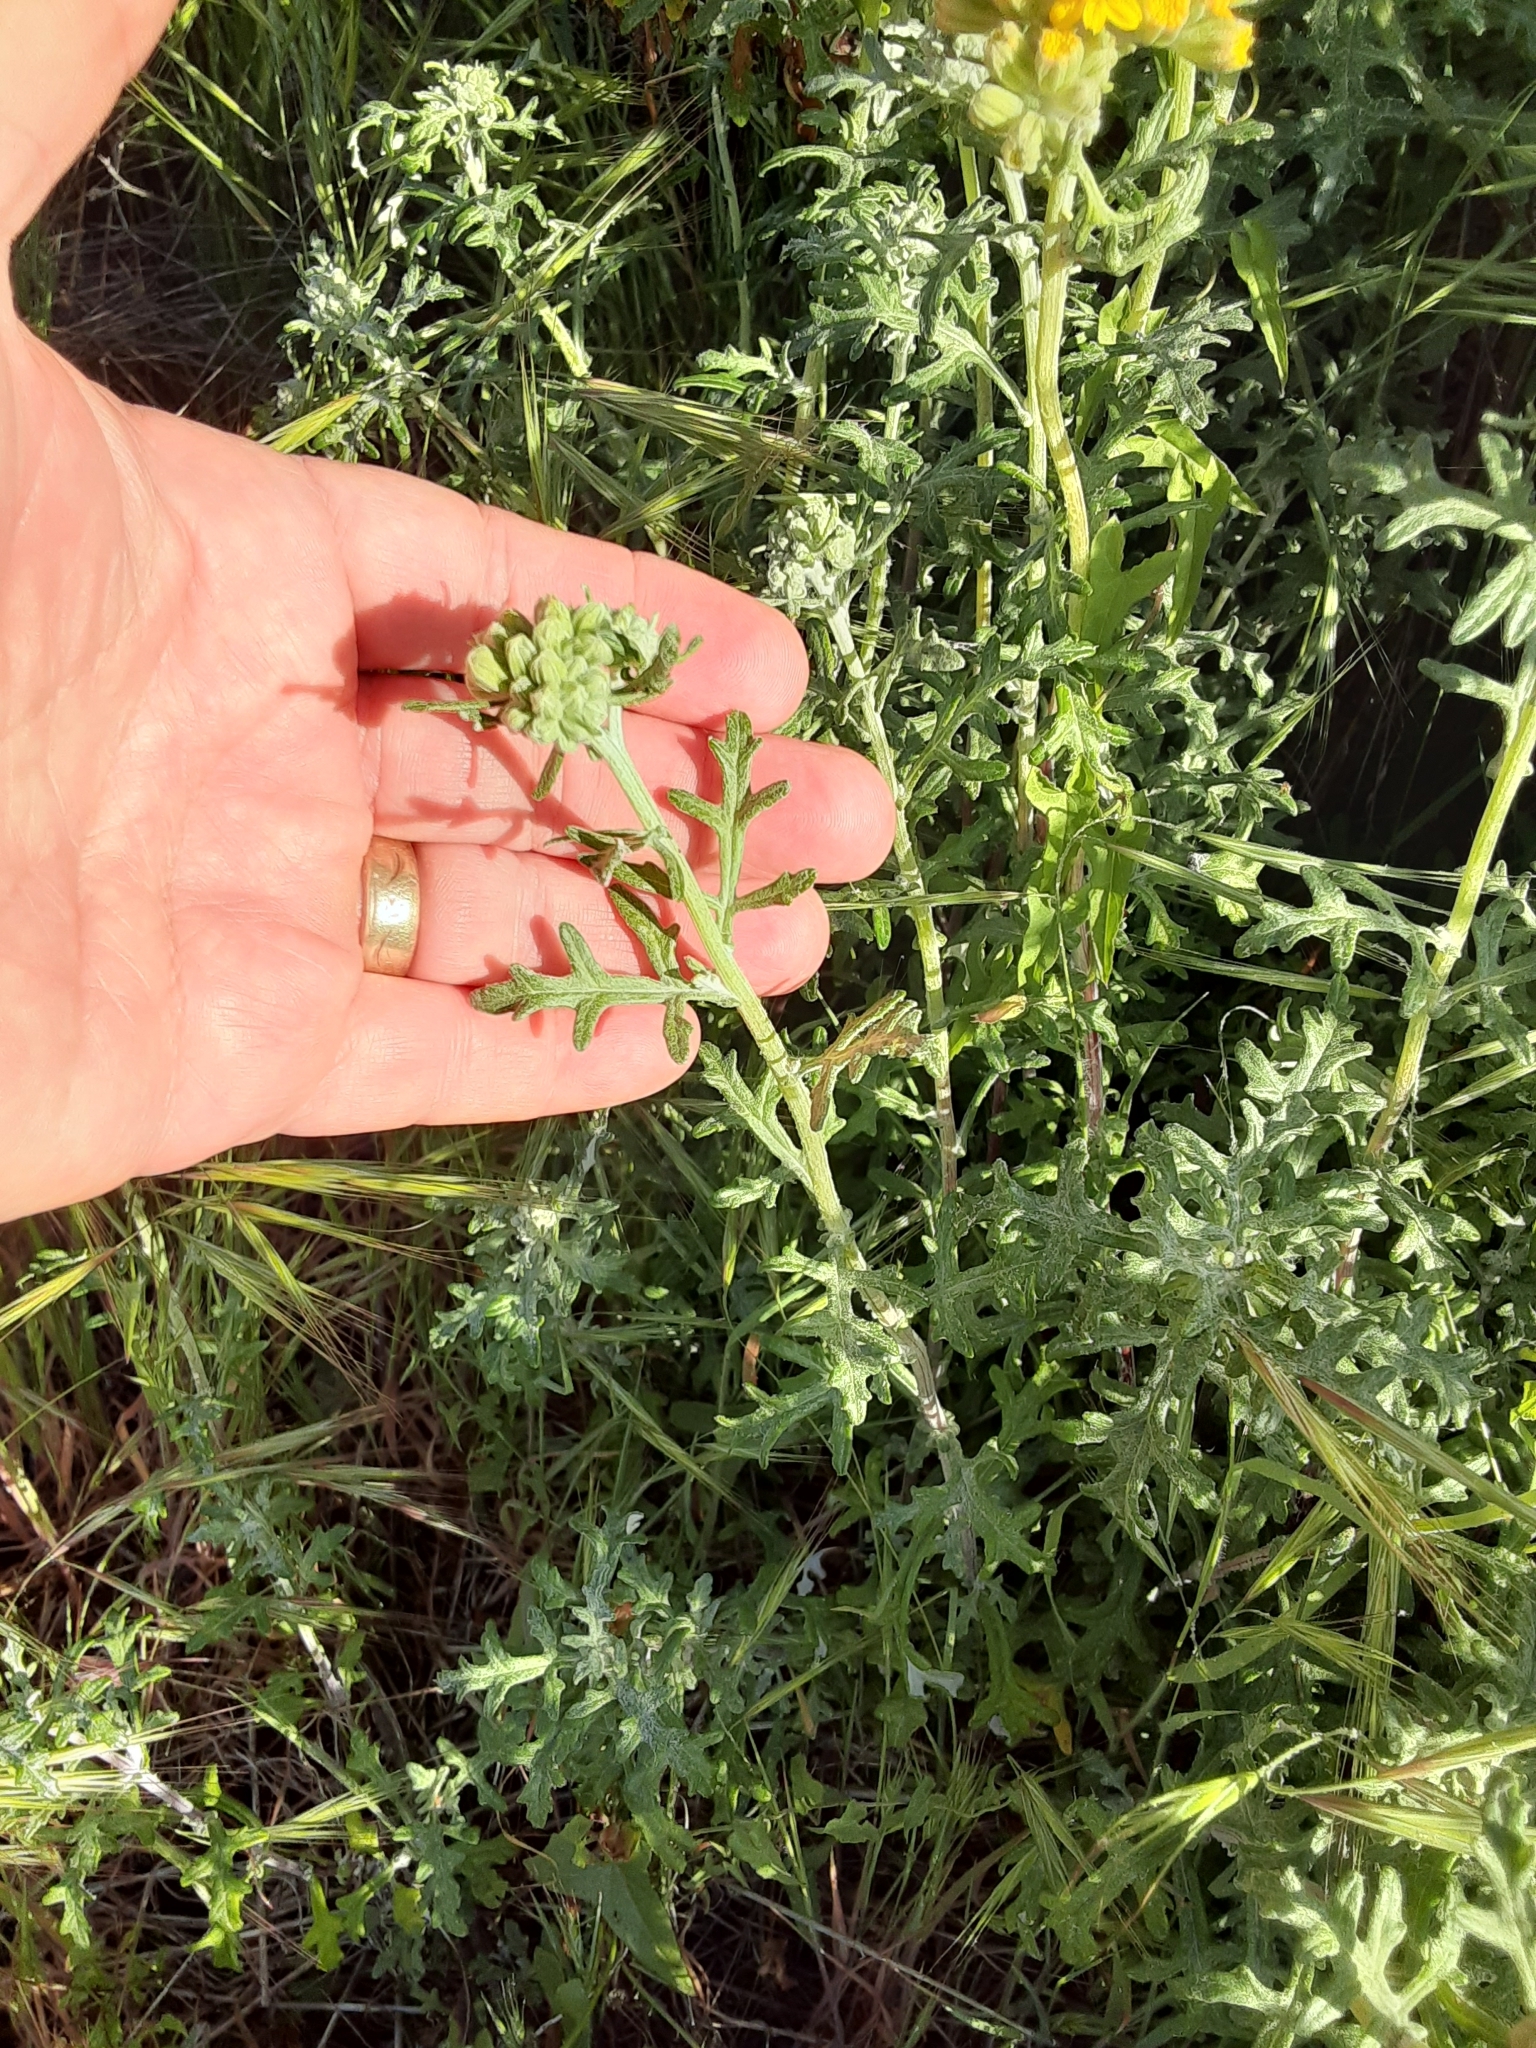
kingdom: Plantae
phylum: Tracheophyta
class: Magnoliopsida
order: Asterales
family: Asteraceae
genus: Eriophyllum
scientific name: Eriophyllum staechadifolium
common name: Lizardtail
